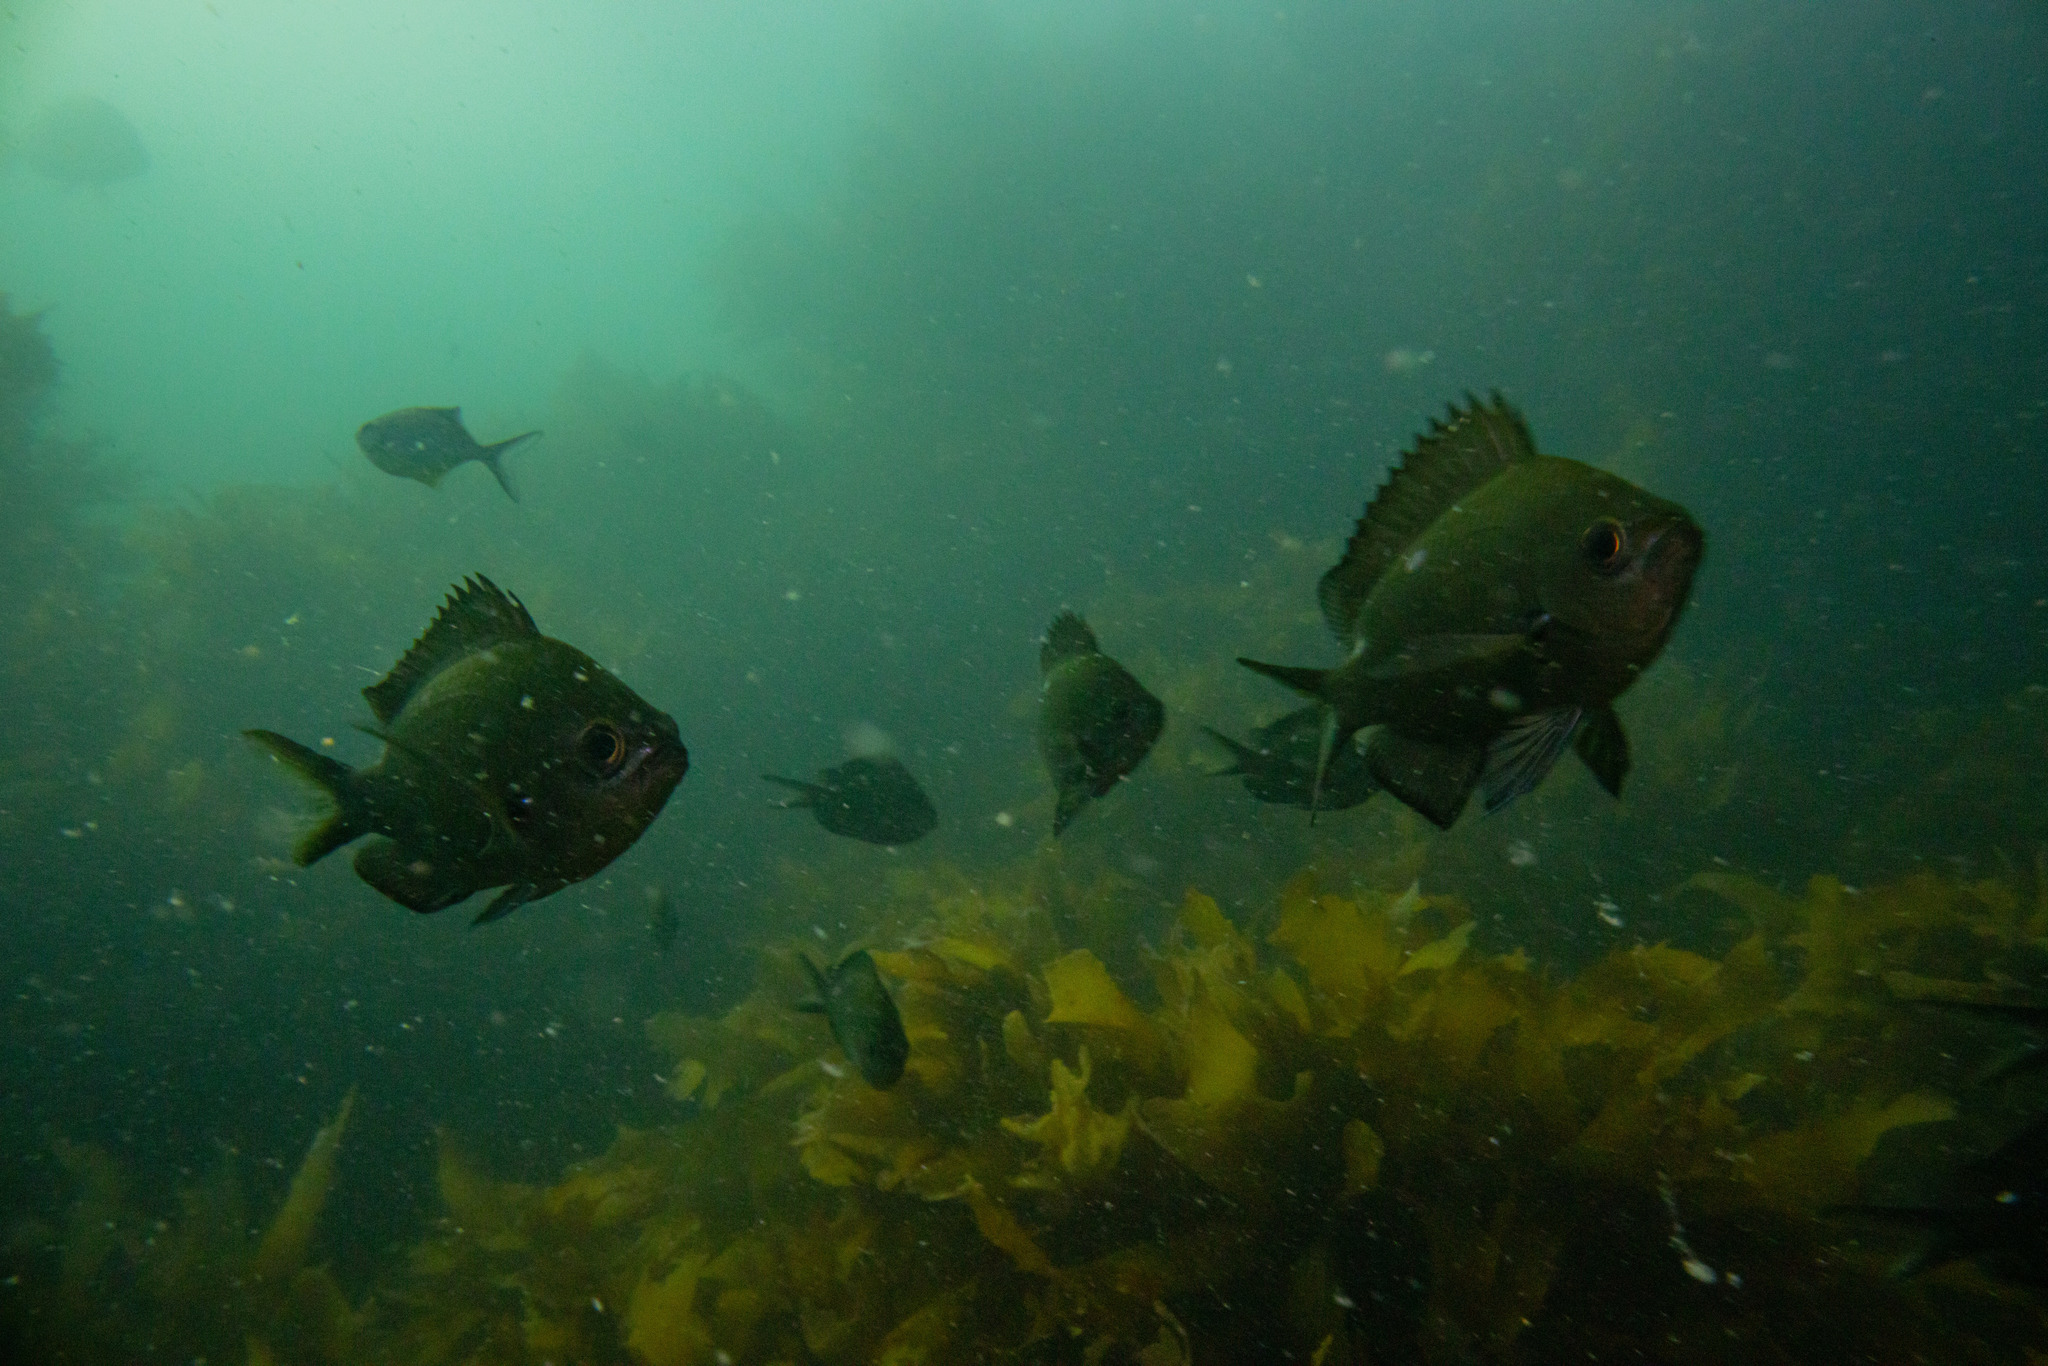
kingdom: Animalia
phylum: Chordata
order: Perciformes
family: Pomacentridae
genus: Chromis
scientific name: Chromis dispilus
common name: Demoiselle
